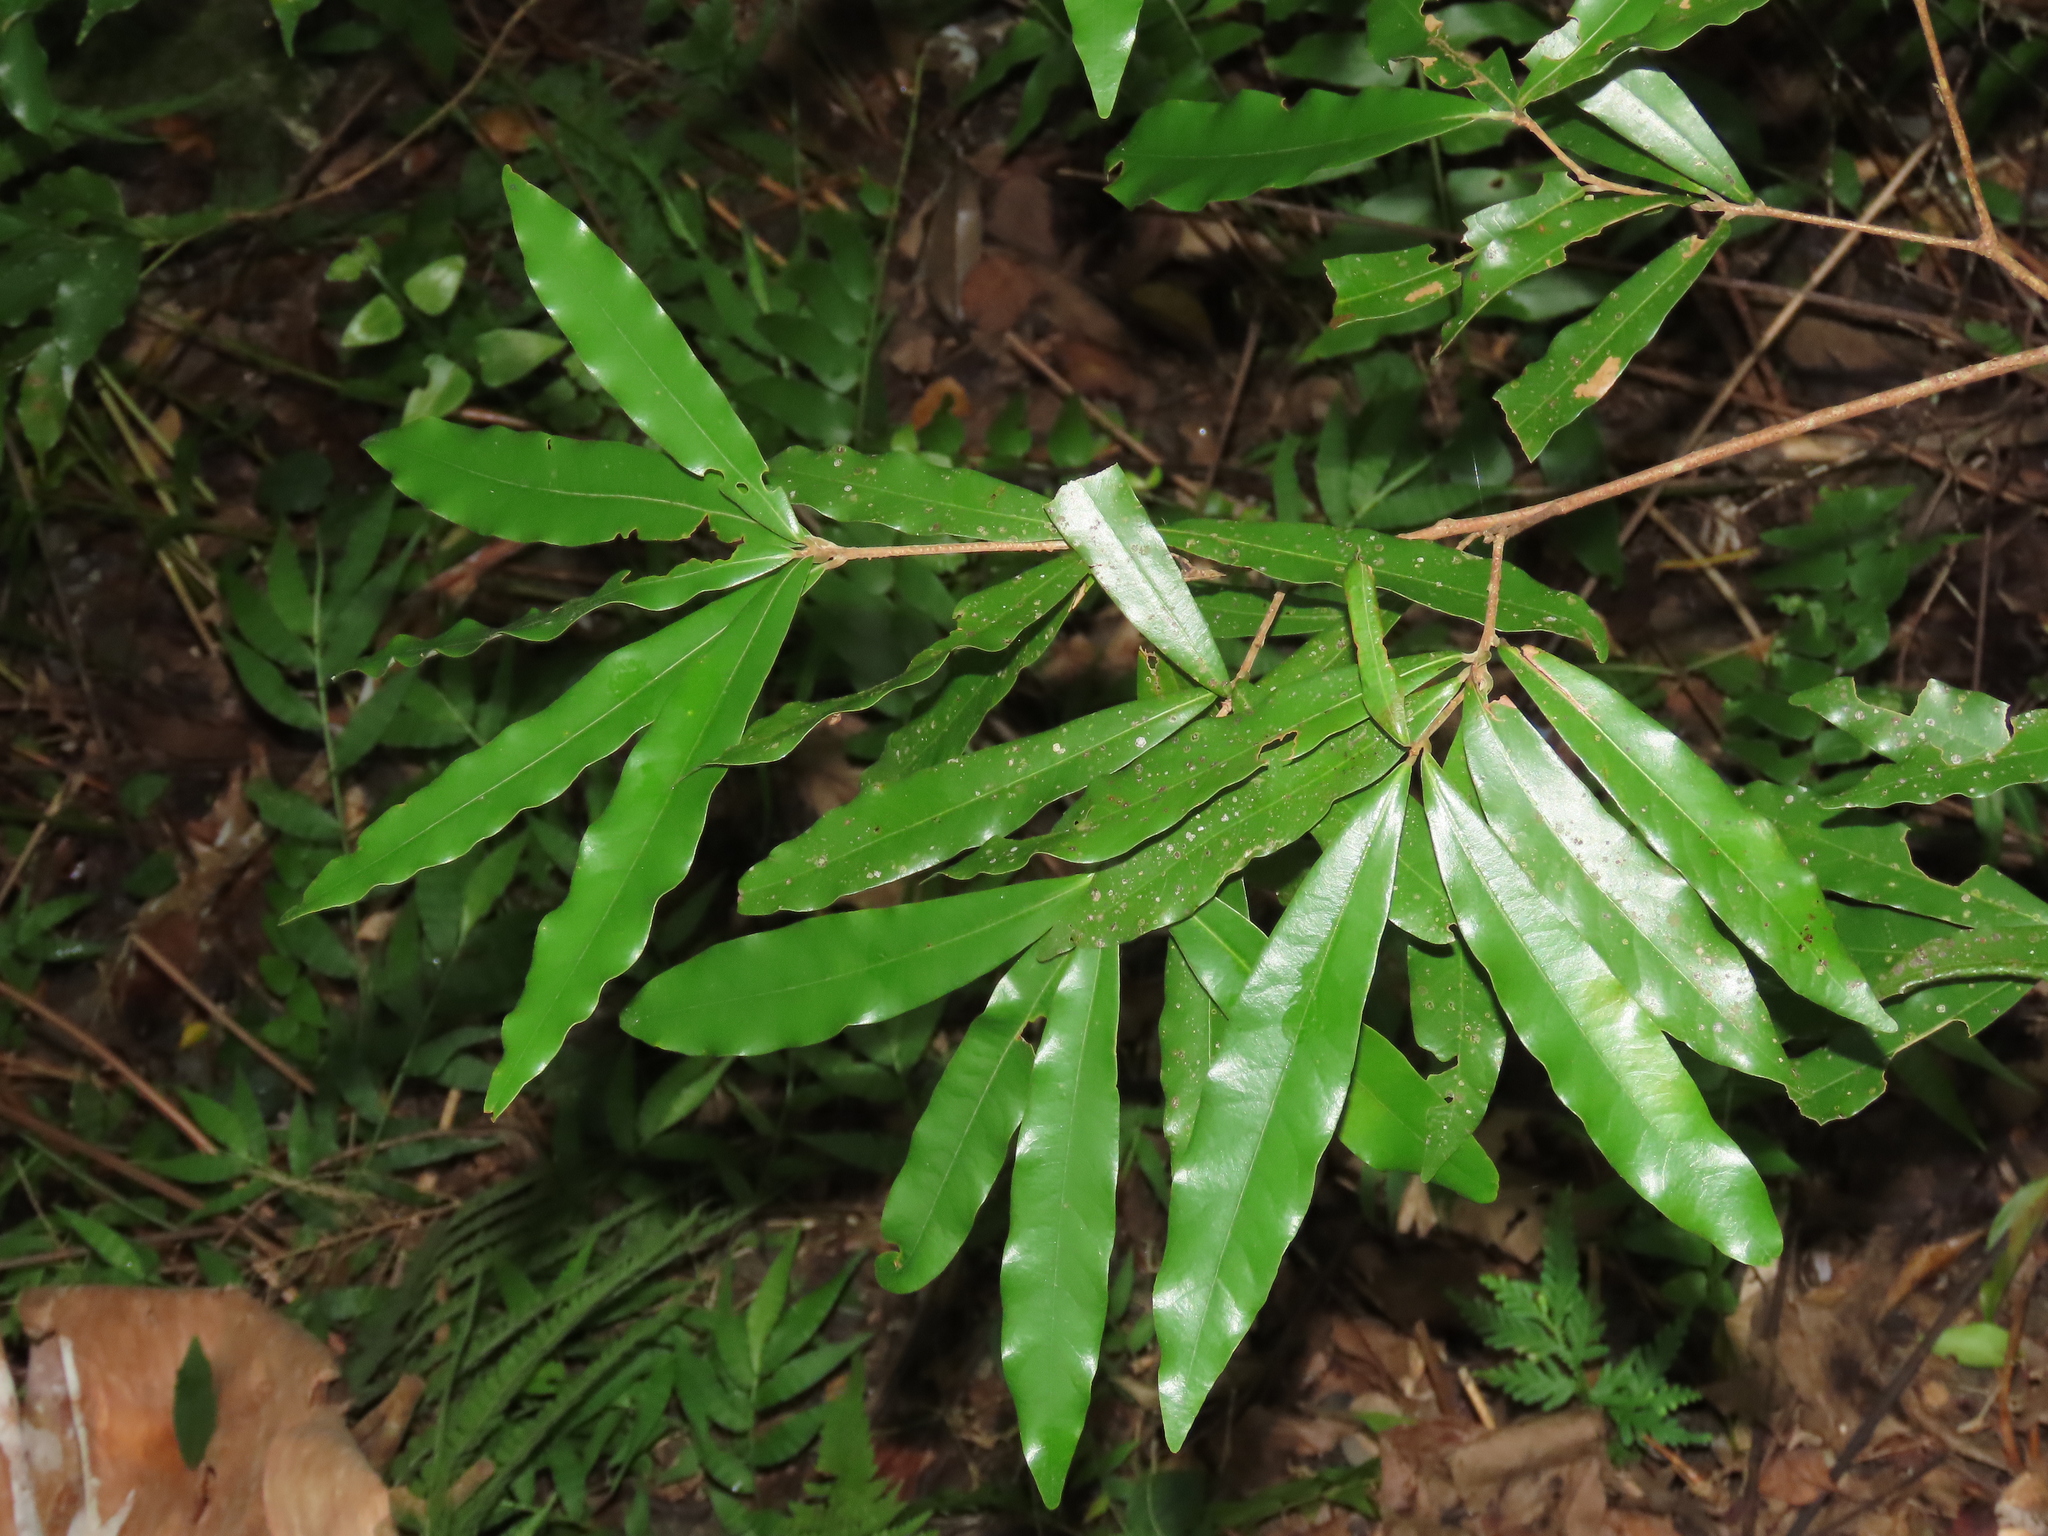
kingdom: Plantae
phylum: Tracheophyta
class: Magnoliopsida
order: Laurales
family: Lauraceae
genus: Litsea
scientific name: Litsea hypophaea
